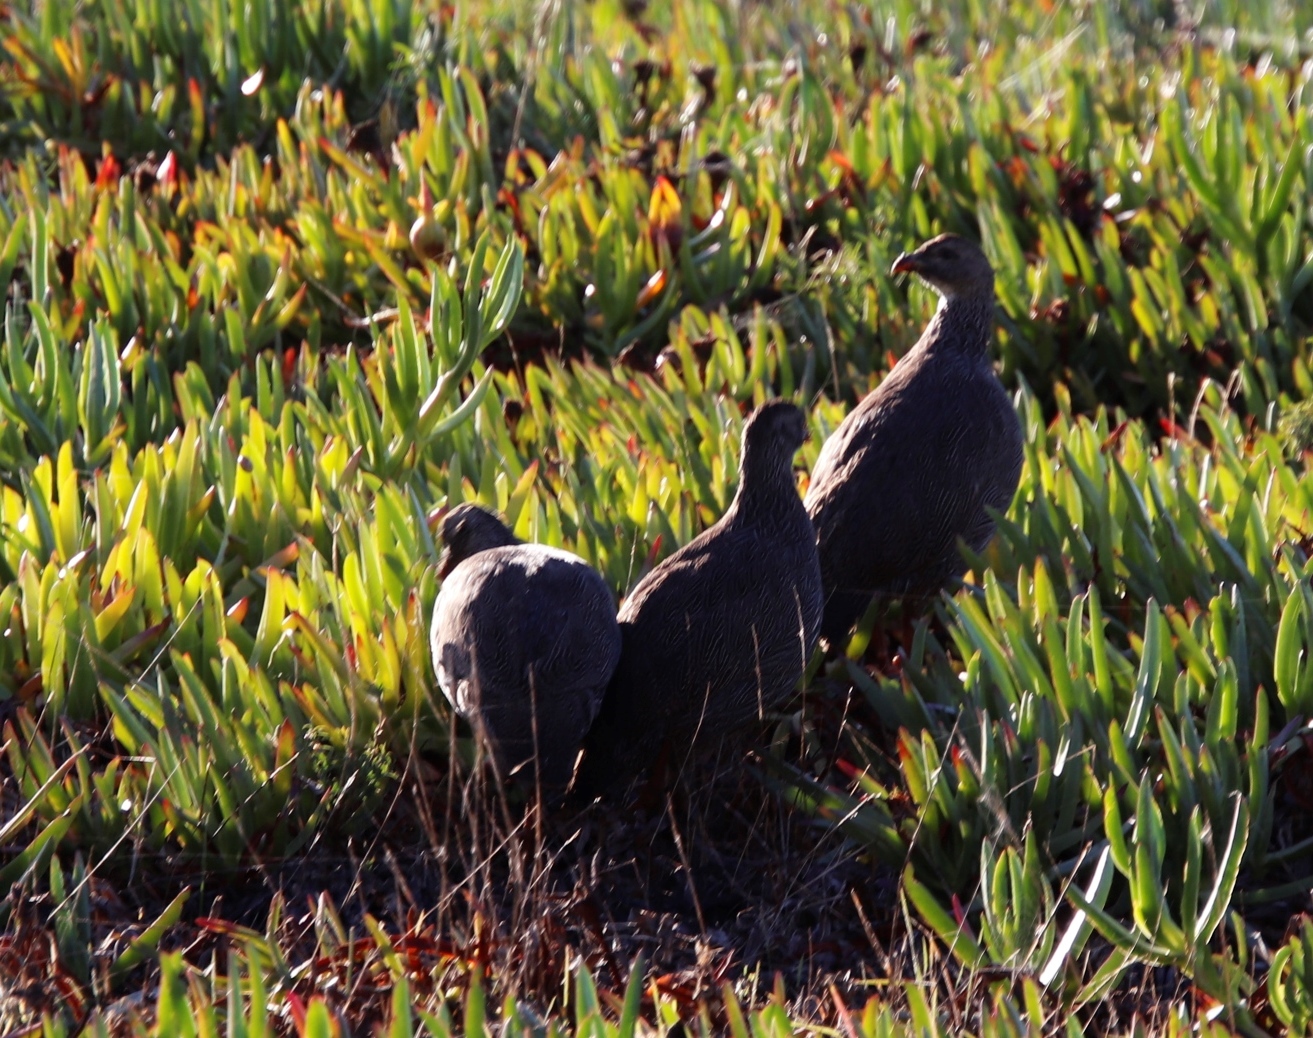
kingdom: Animalia
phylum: Chordata
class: Aves
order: Galliformes
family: Phasianidae
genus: Pternistis
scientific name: Pternistis capensis
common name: Cape spurfowl
